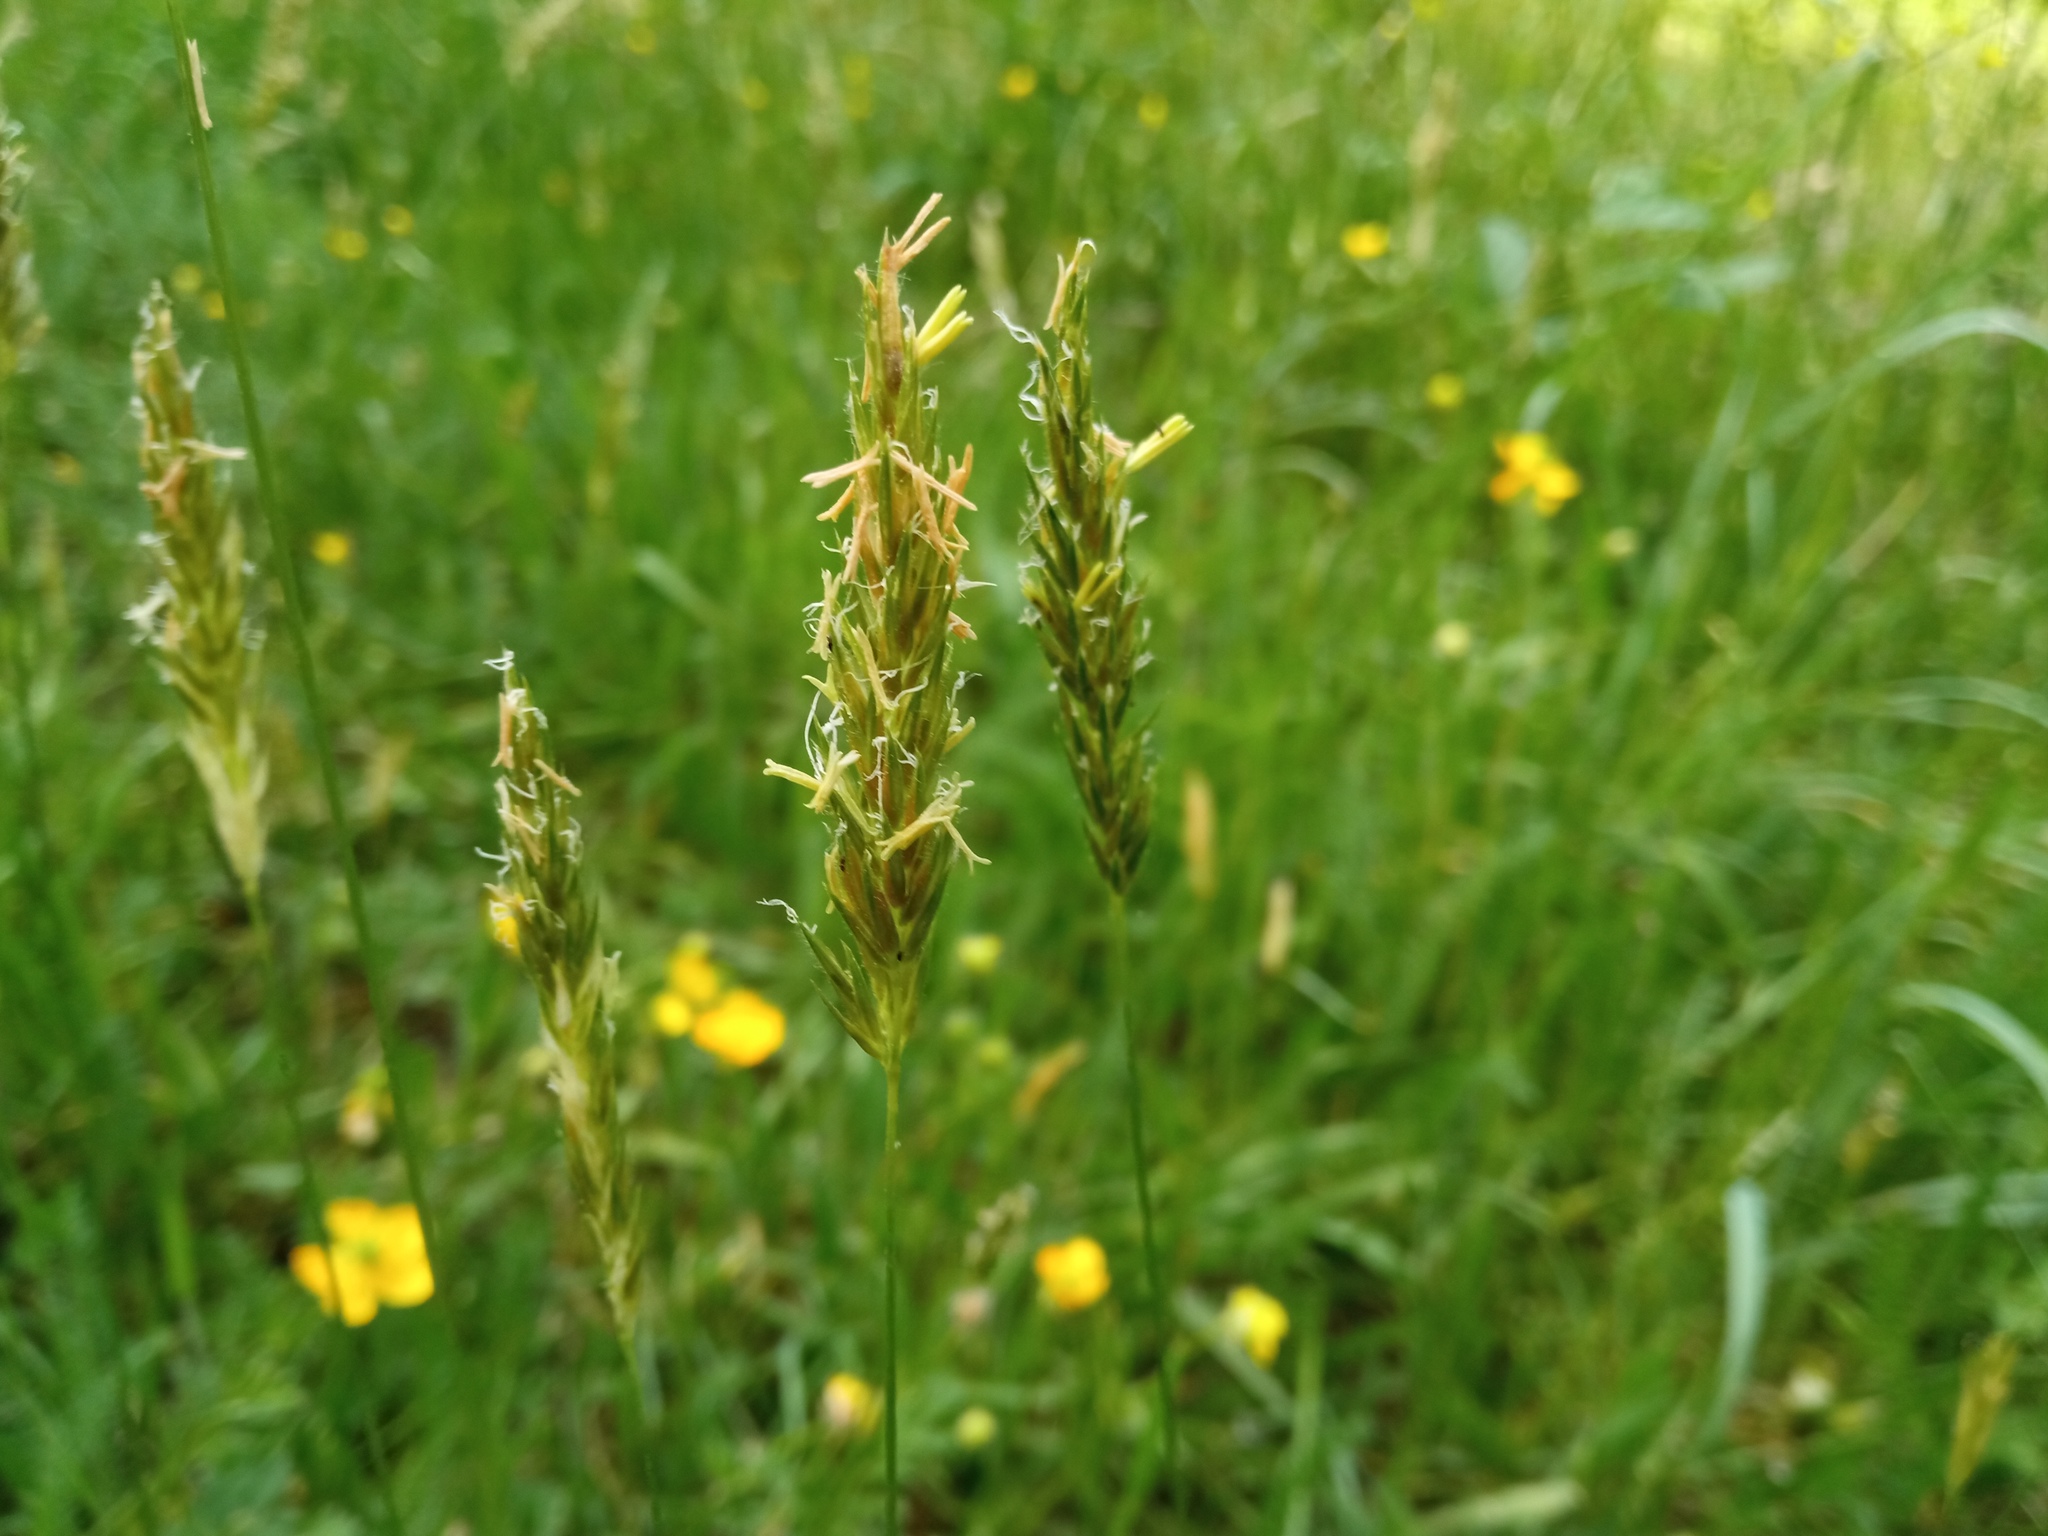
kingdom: Plantae
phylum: Tracheophyta
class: Liliopsida
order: Poales
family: Poaceae
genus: Anthoxanthum
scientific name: Anthoxanthum odoratum
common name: Sweet vernalgrass
